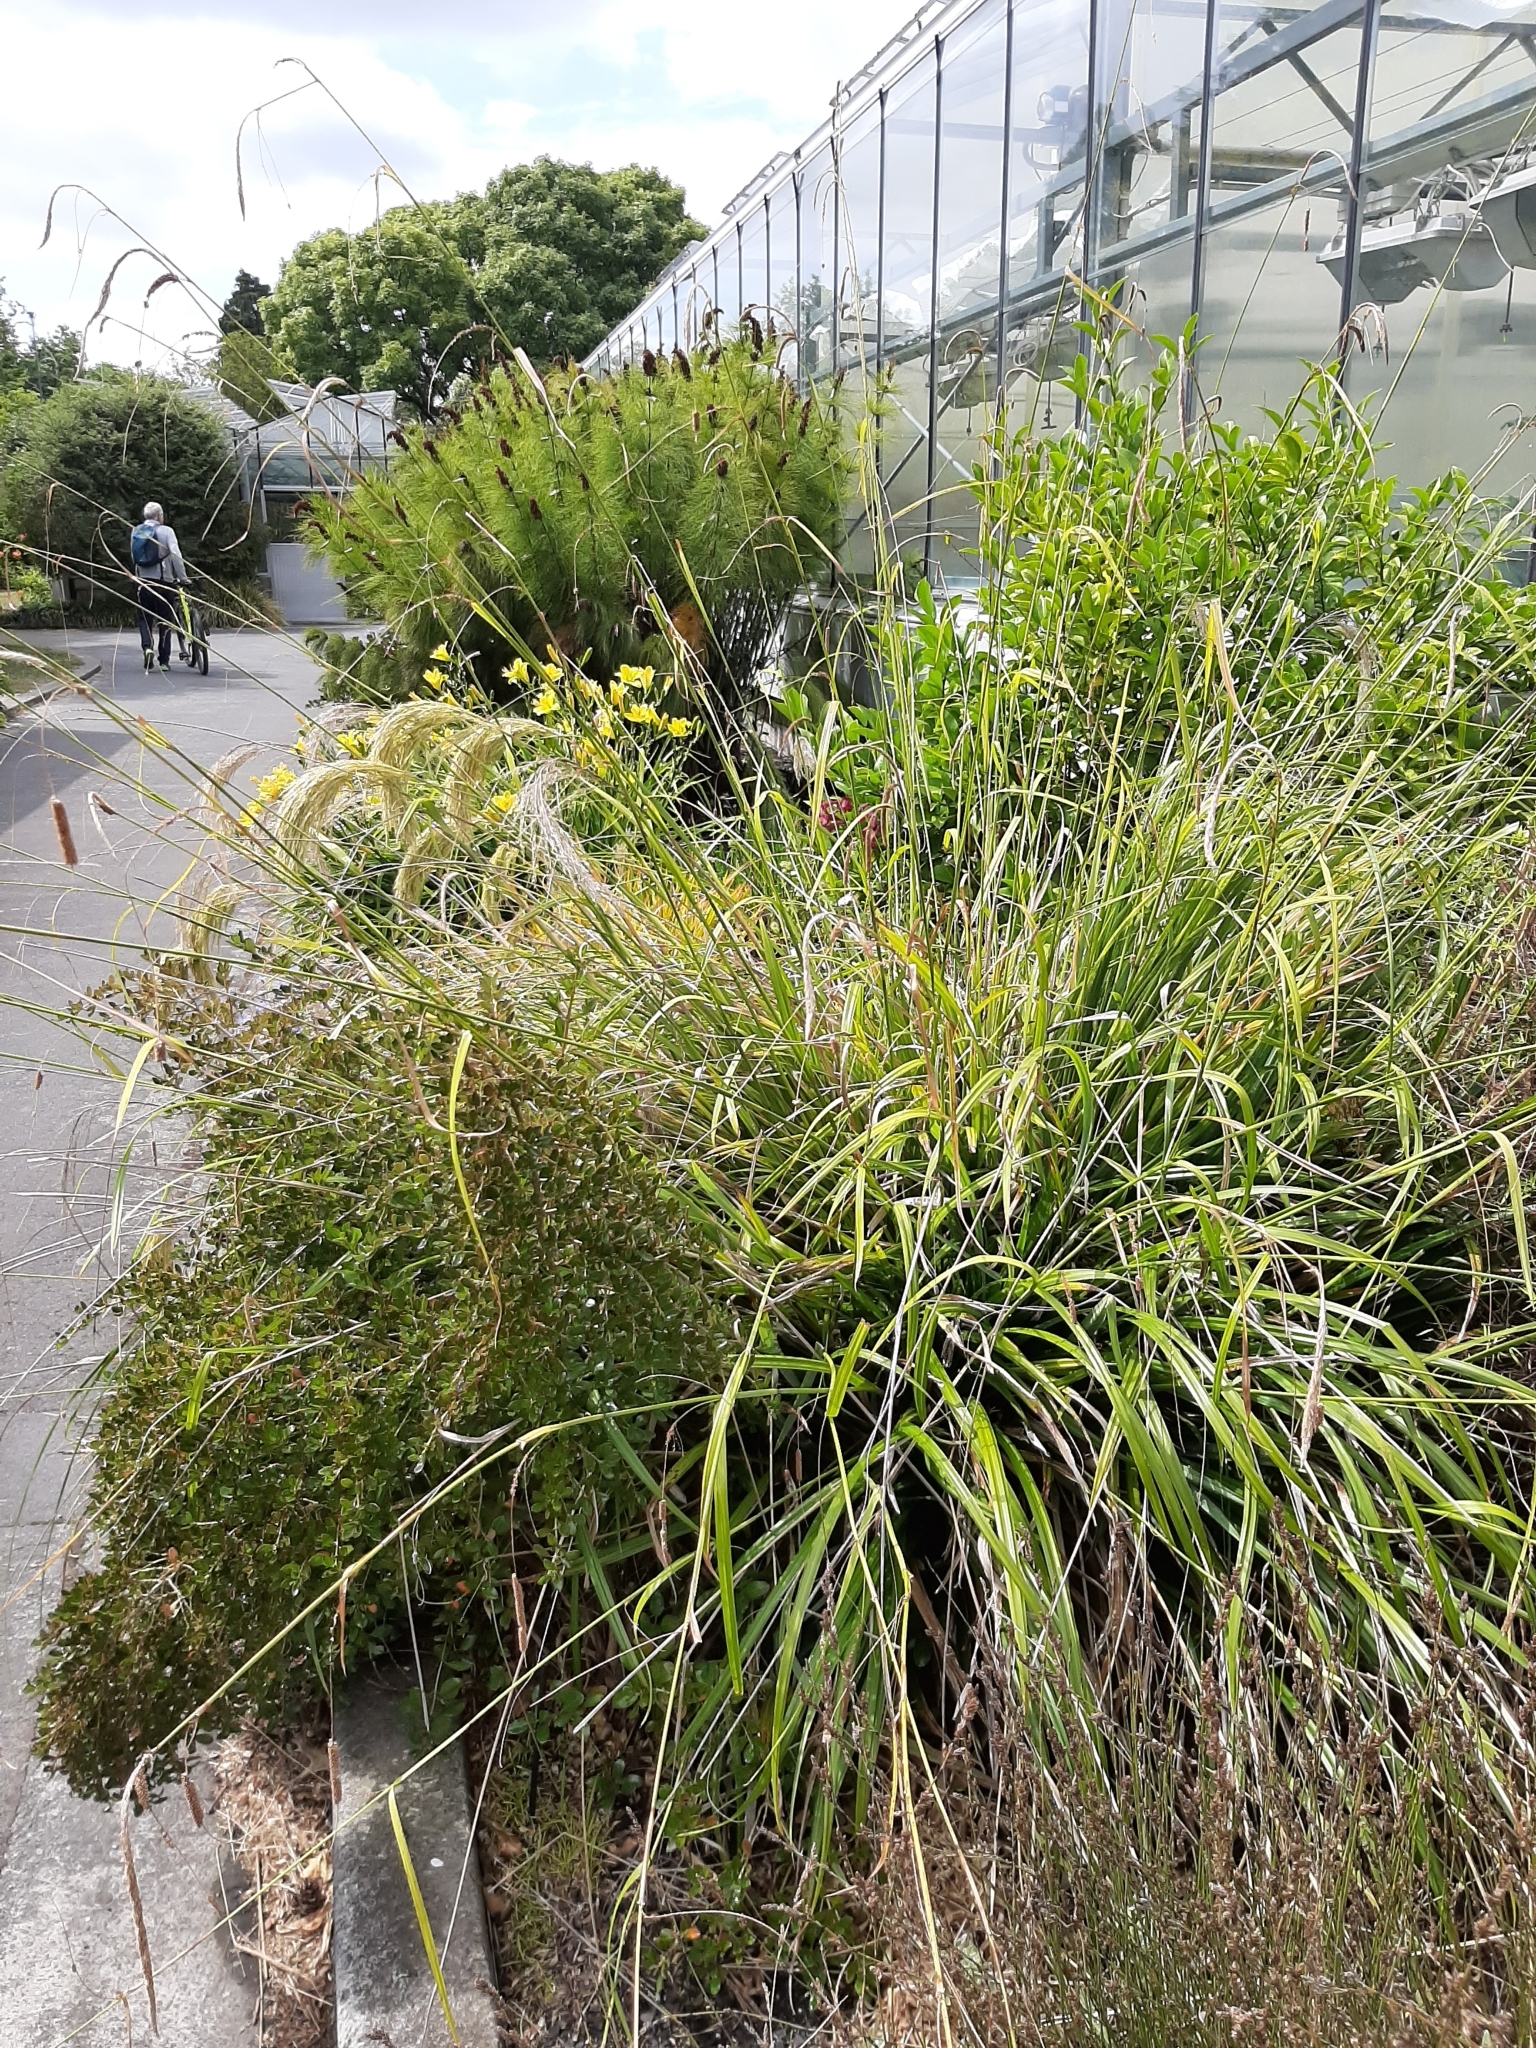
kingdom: Plantae
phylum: Tracheophyta
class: Liliopsida
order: Poales
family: Cyperaceae
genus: Carex
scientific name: Carex pendula
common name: Pendulous sedge
